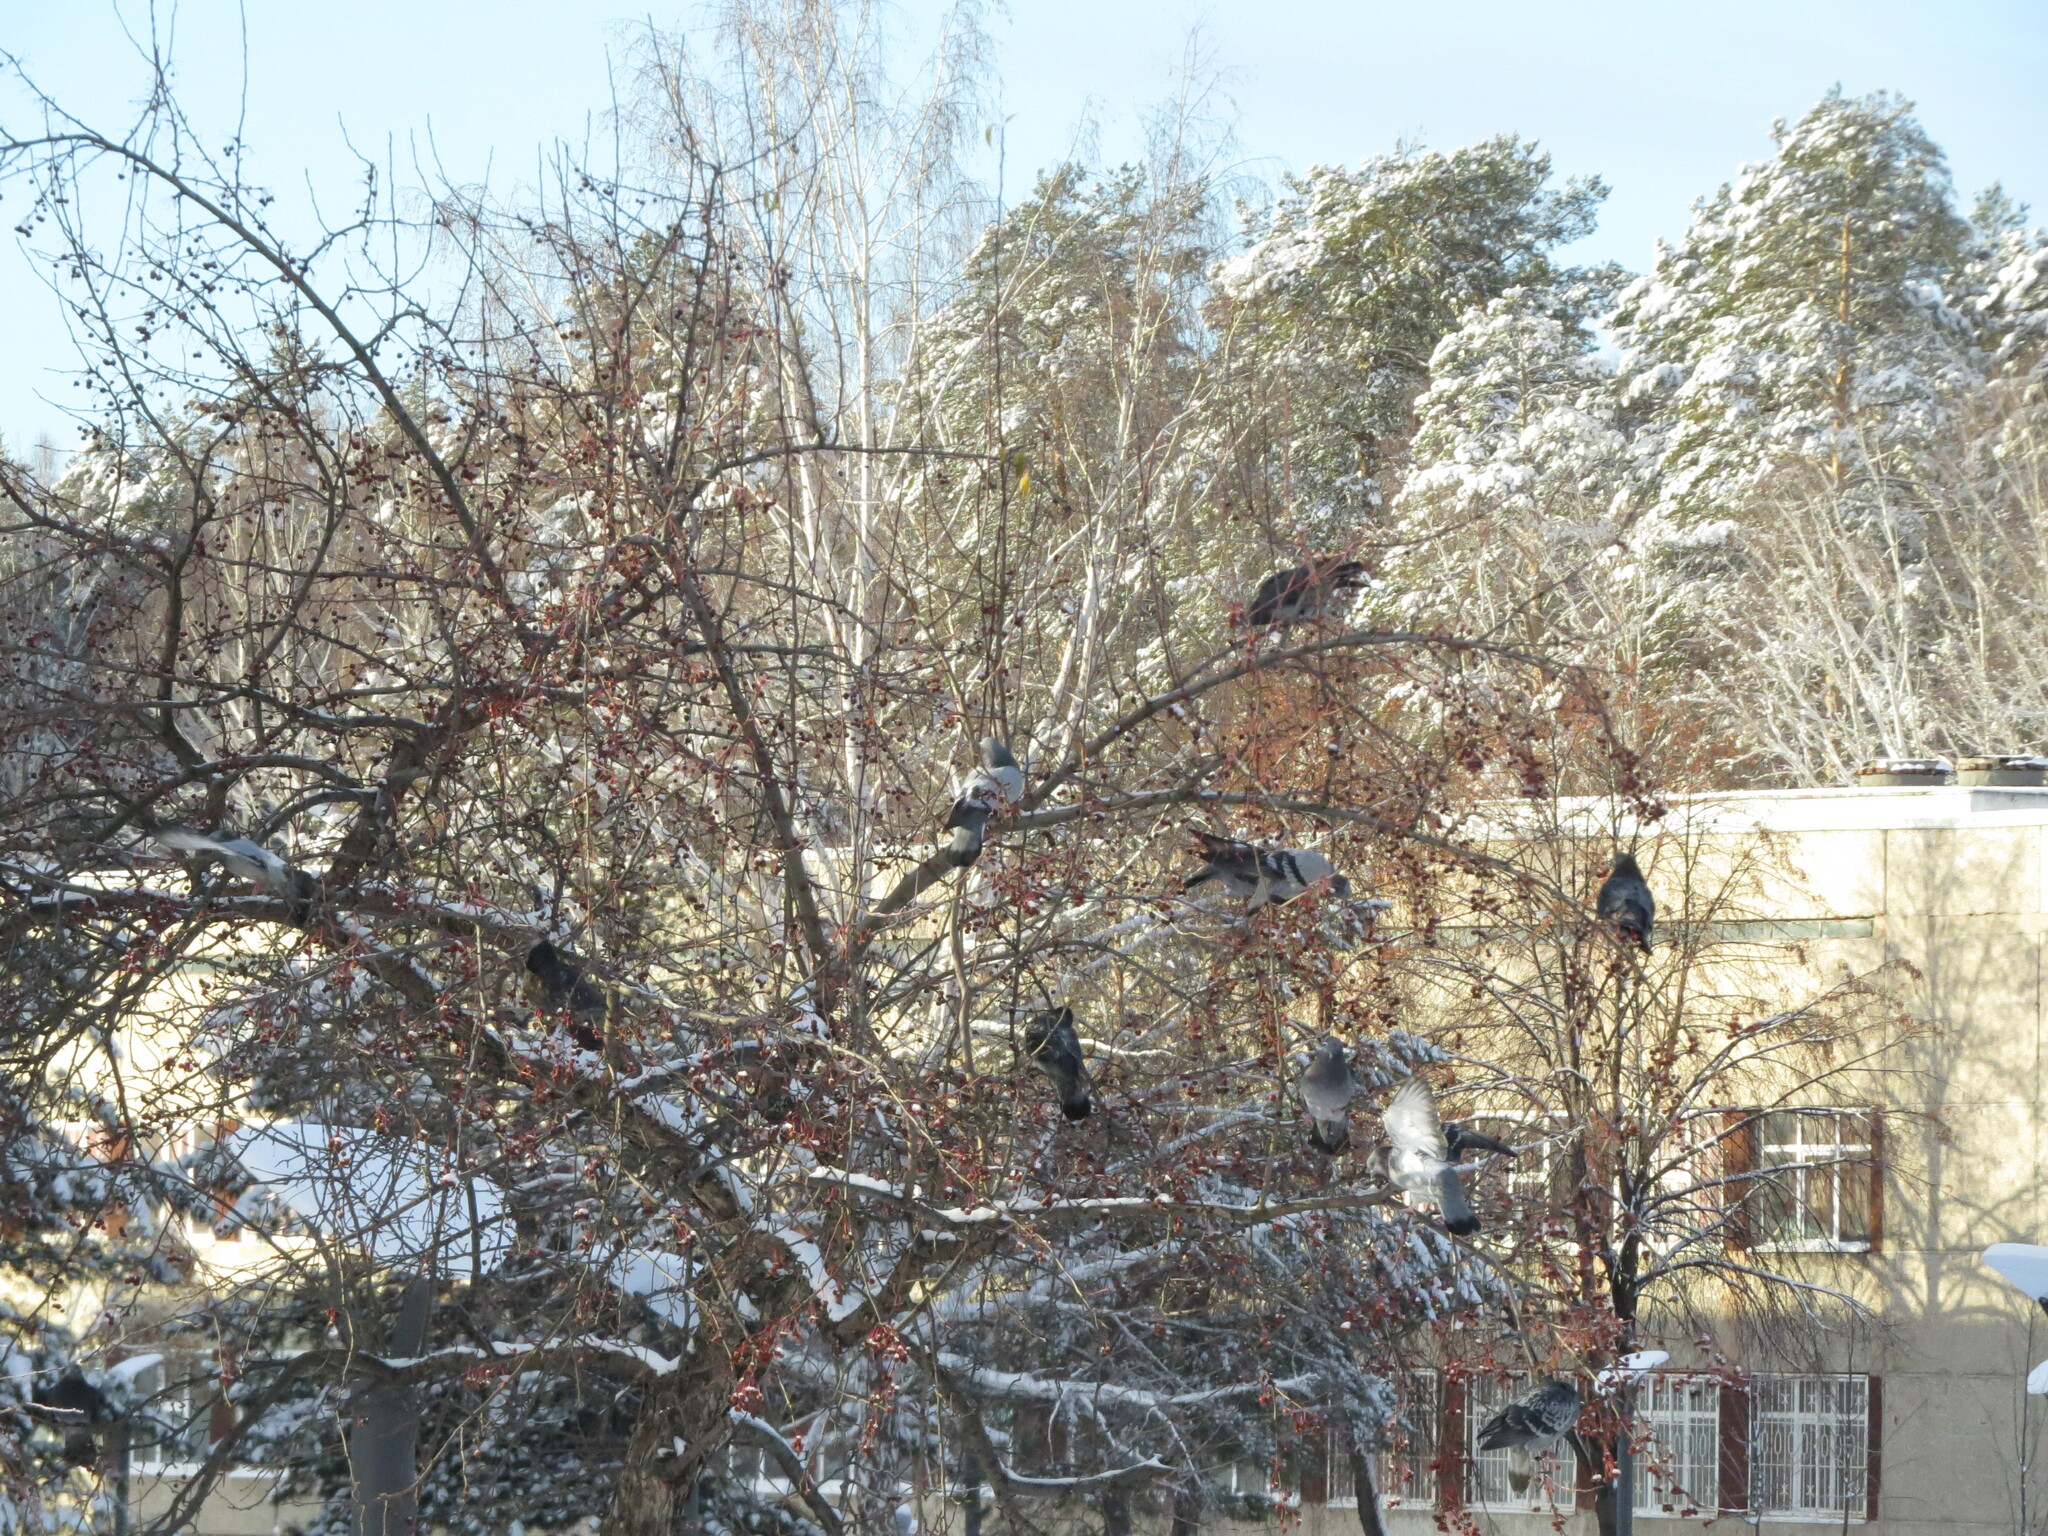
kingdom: Animalia
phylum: Chordata
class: Aves
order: Columbiformes
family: Columbidae
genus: Columba
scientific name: Columba livia
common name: Rock pigeon
